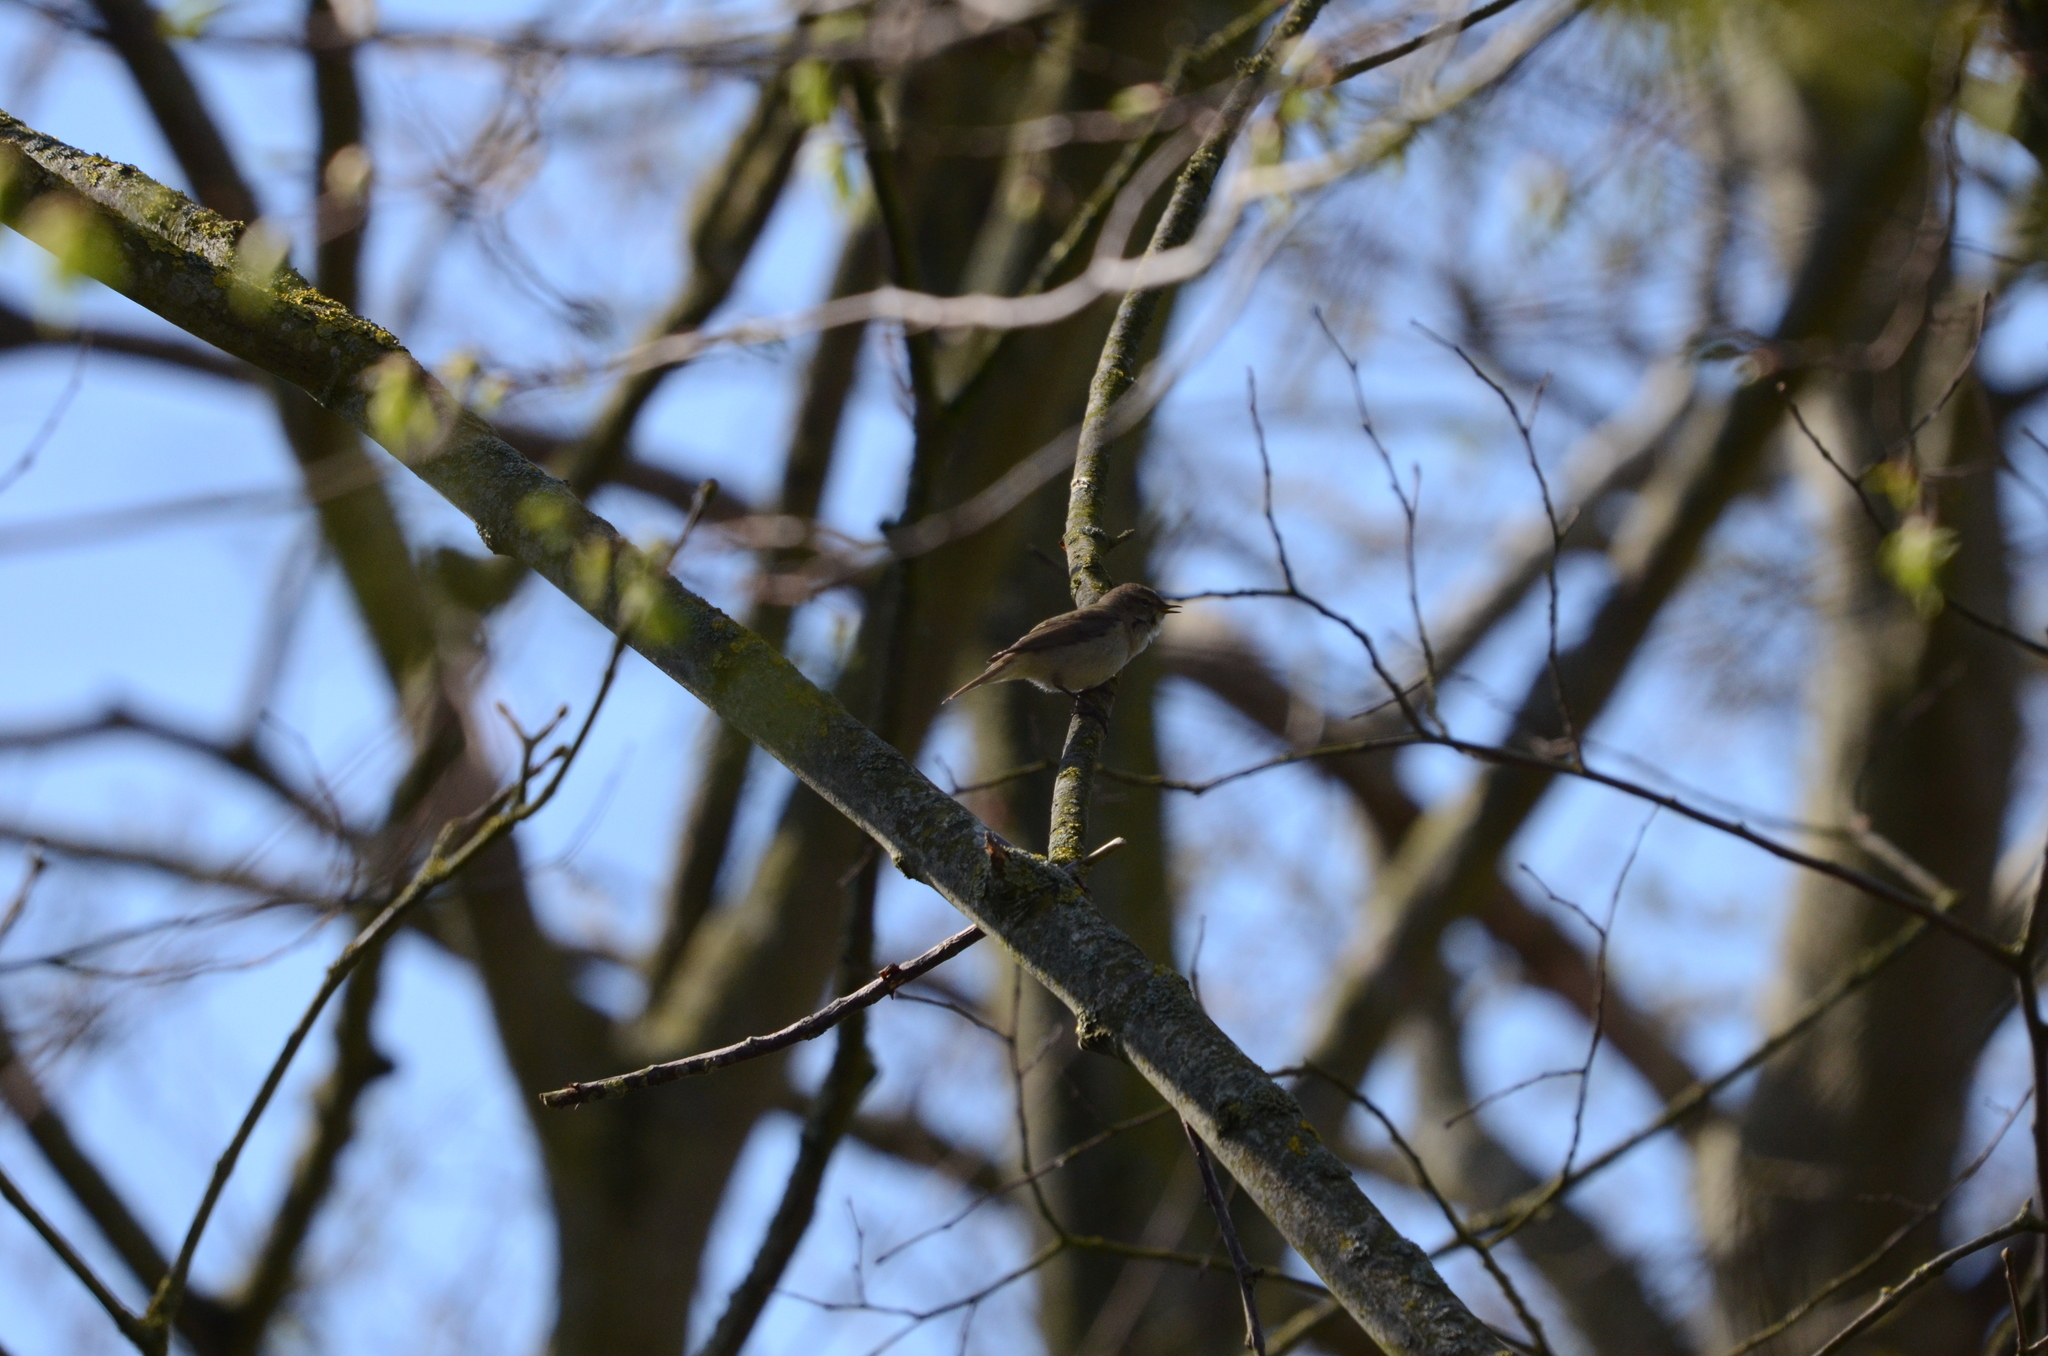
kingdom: Animalia
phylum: Chordata
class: Aves
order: Passeriformes
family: Phylloscopidae
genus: Phylloscopus
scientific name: Phylloscopus collybita
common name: Common chiffchaff
